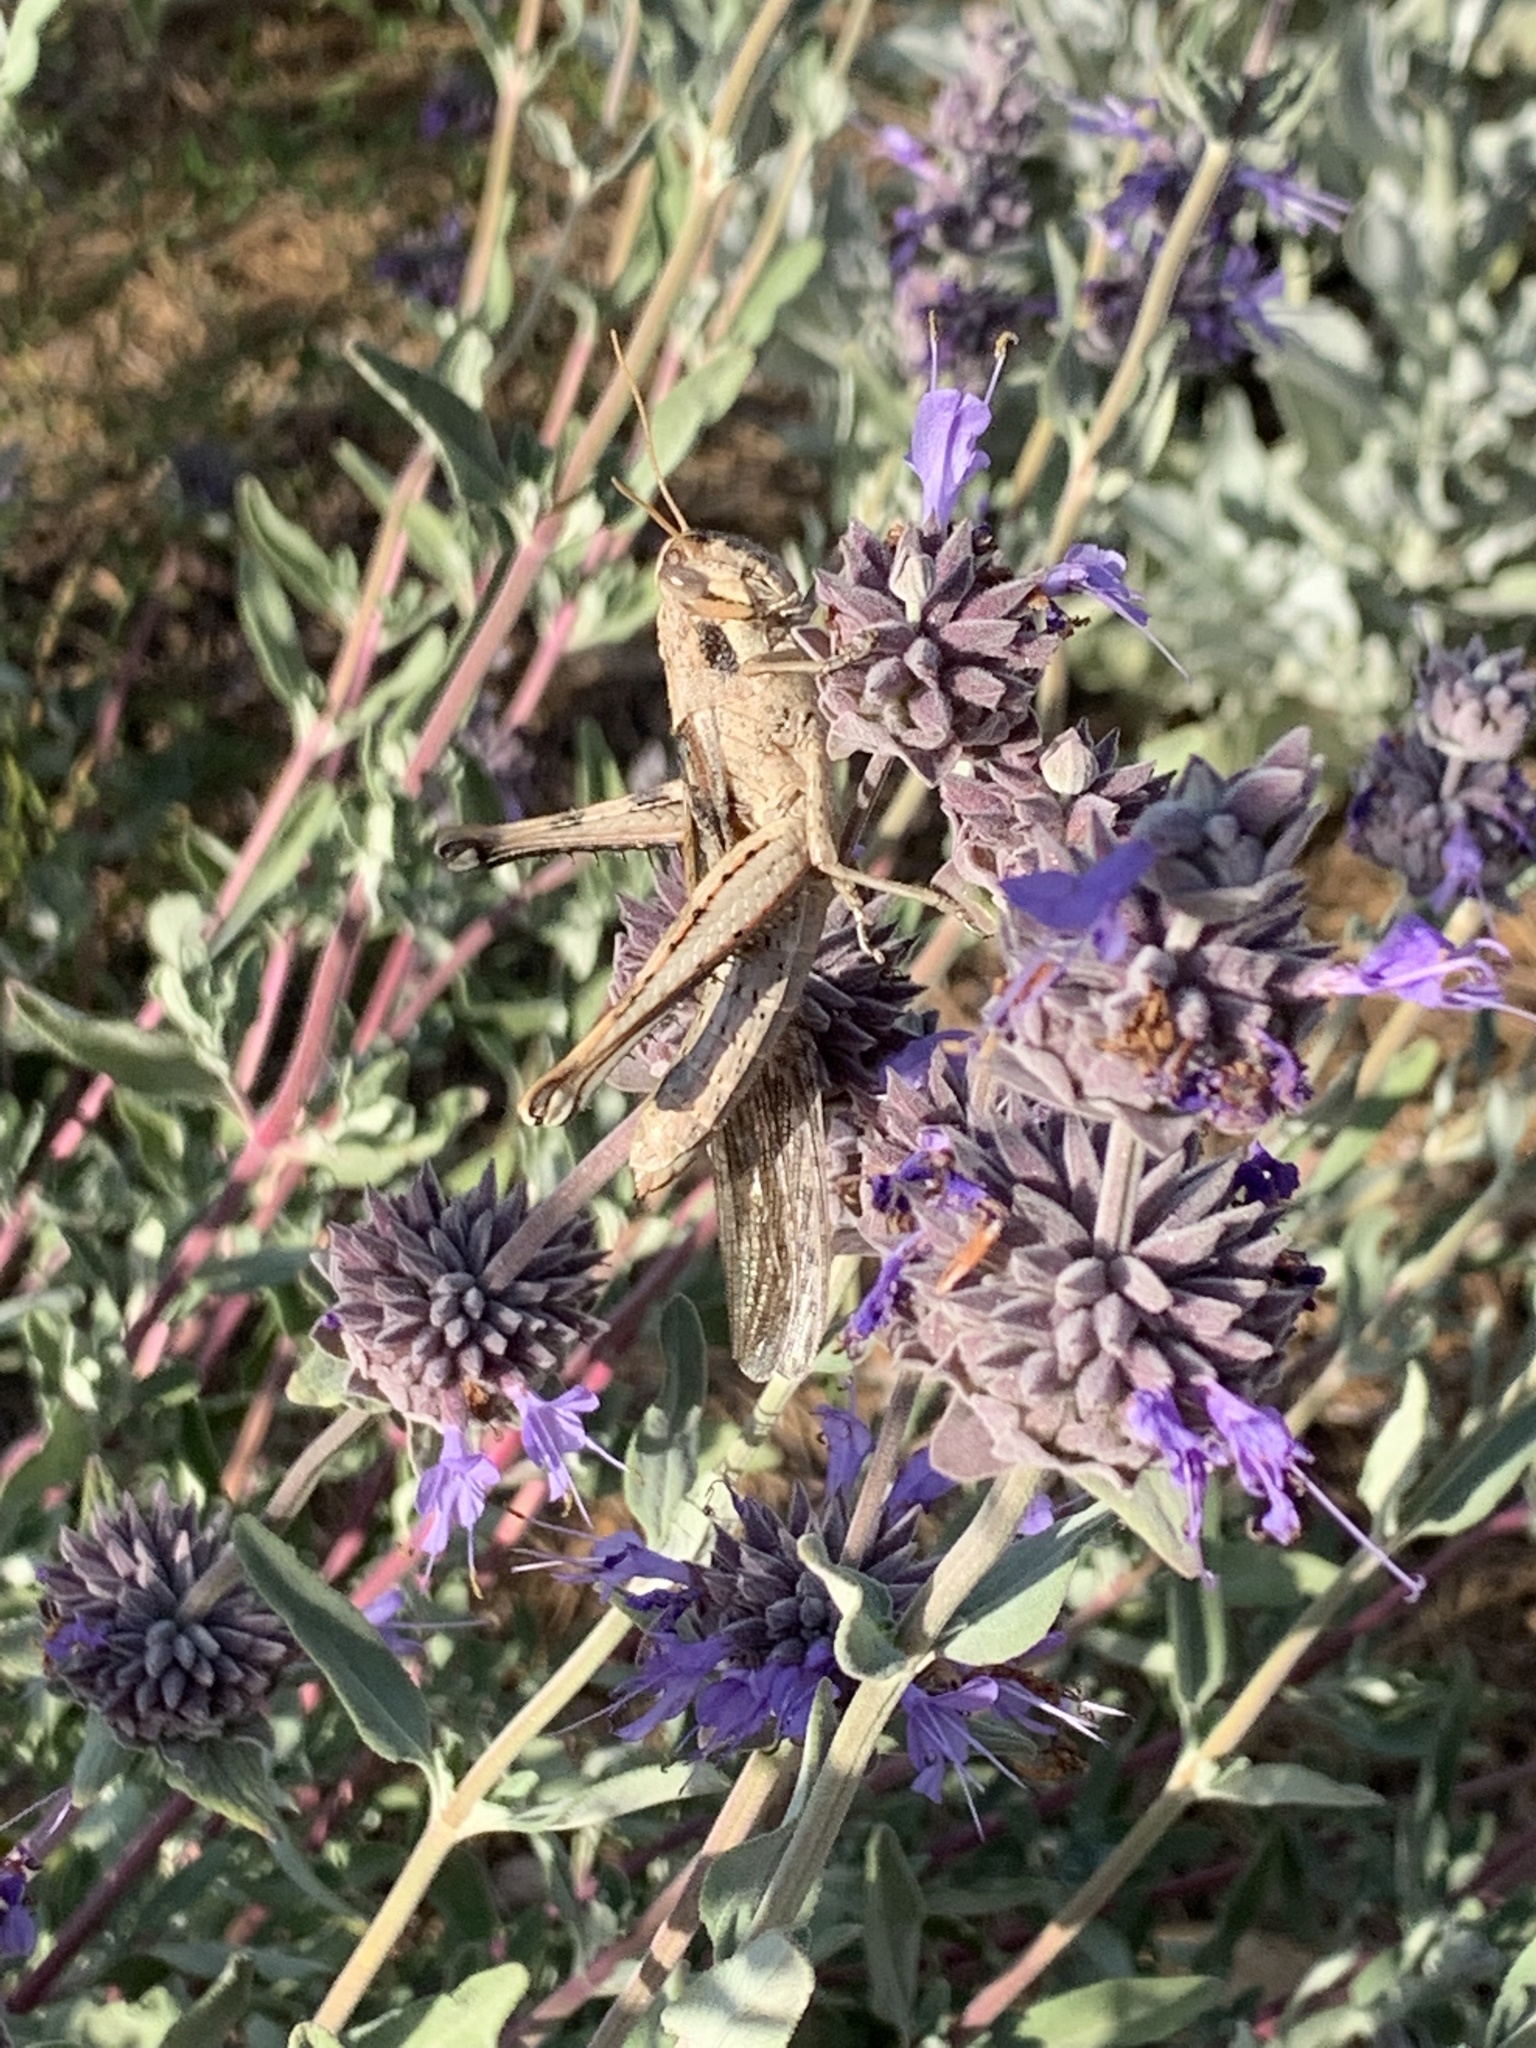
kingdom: Animalia
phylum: Arthropoda
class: Insecta
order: Orthoptera
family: Acrididae
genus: Schistocerca
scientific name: Schistocerca nitens
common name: Vagrant grasshopper
